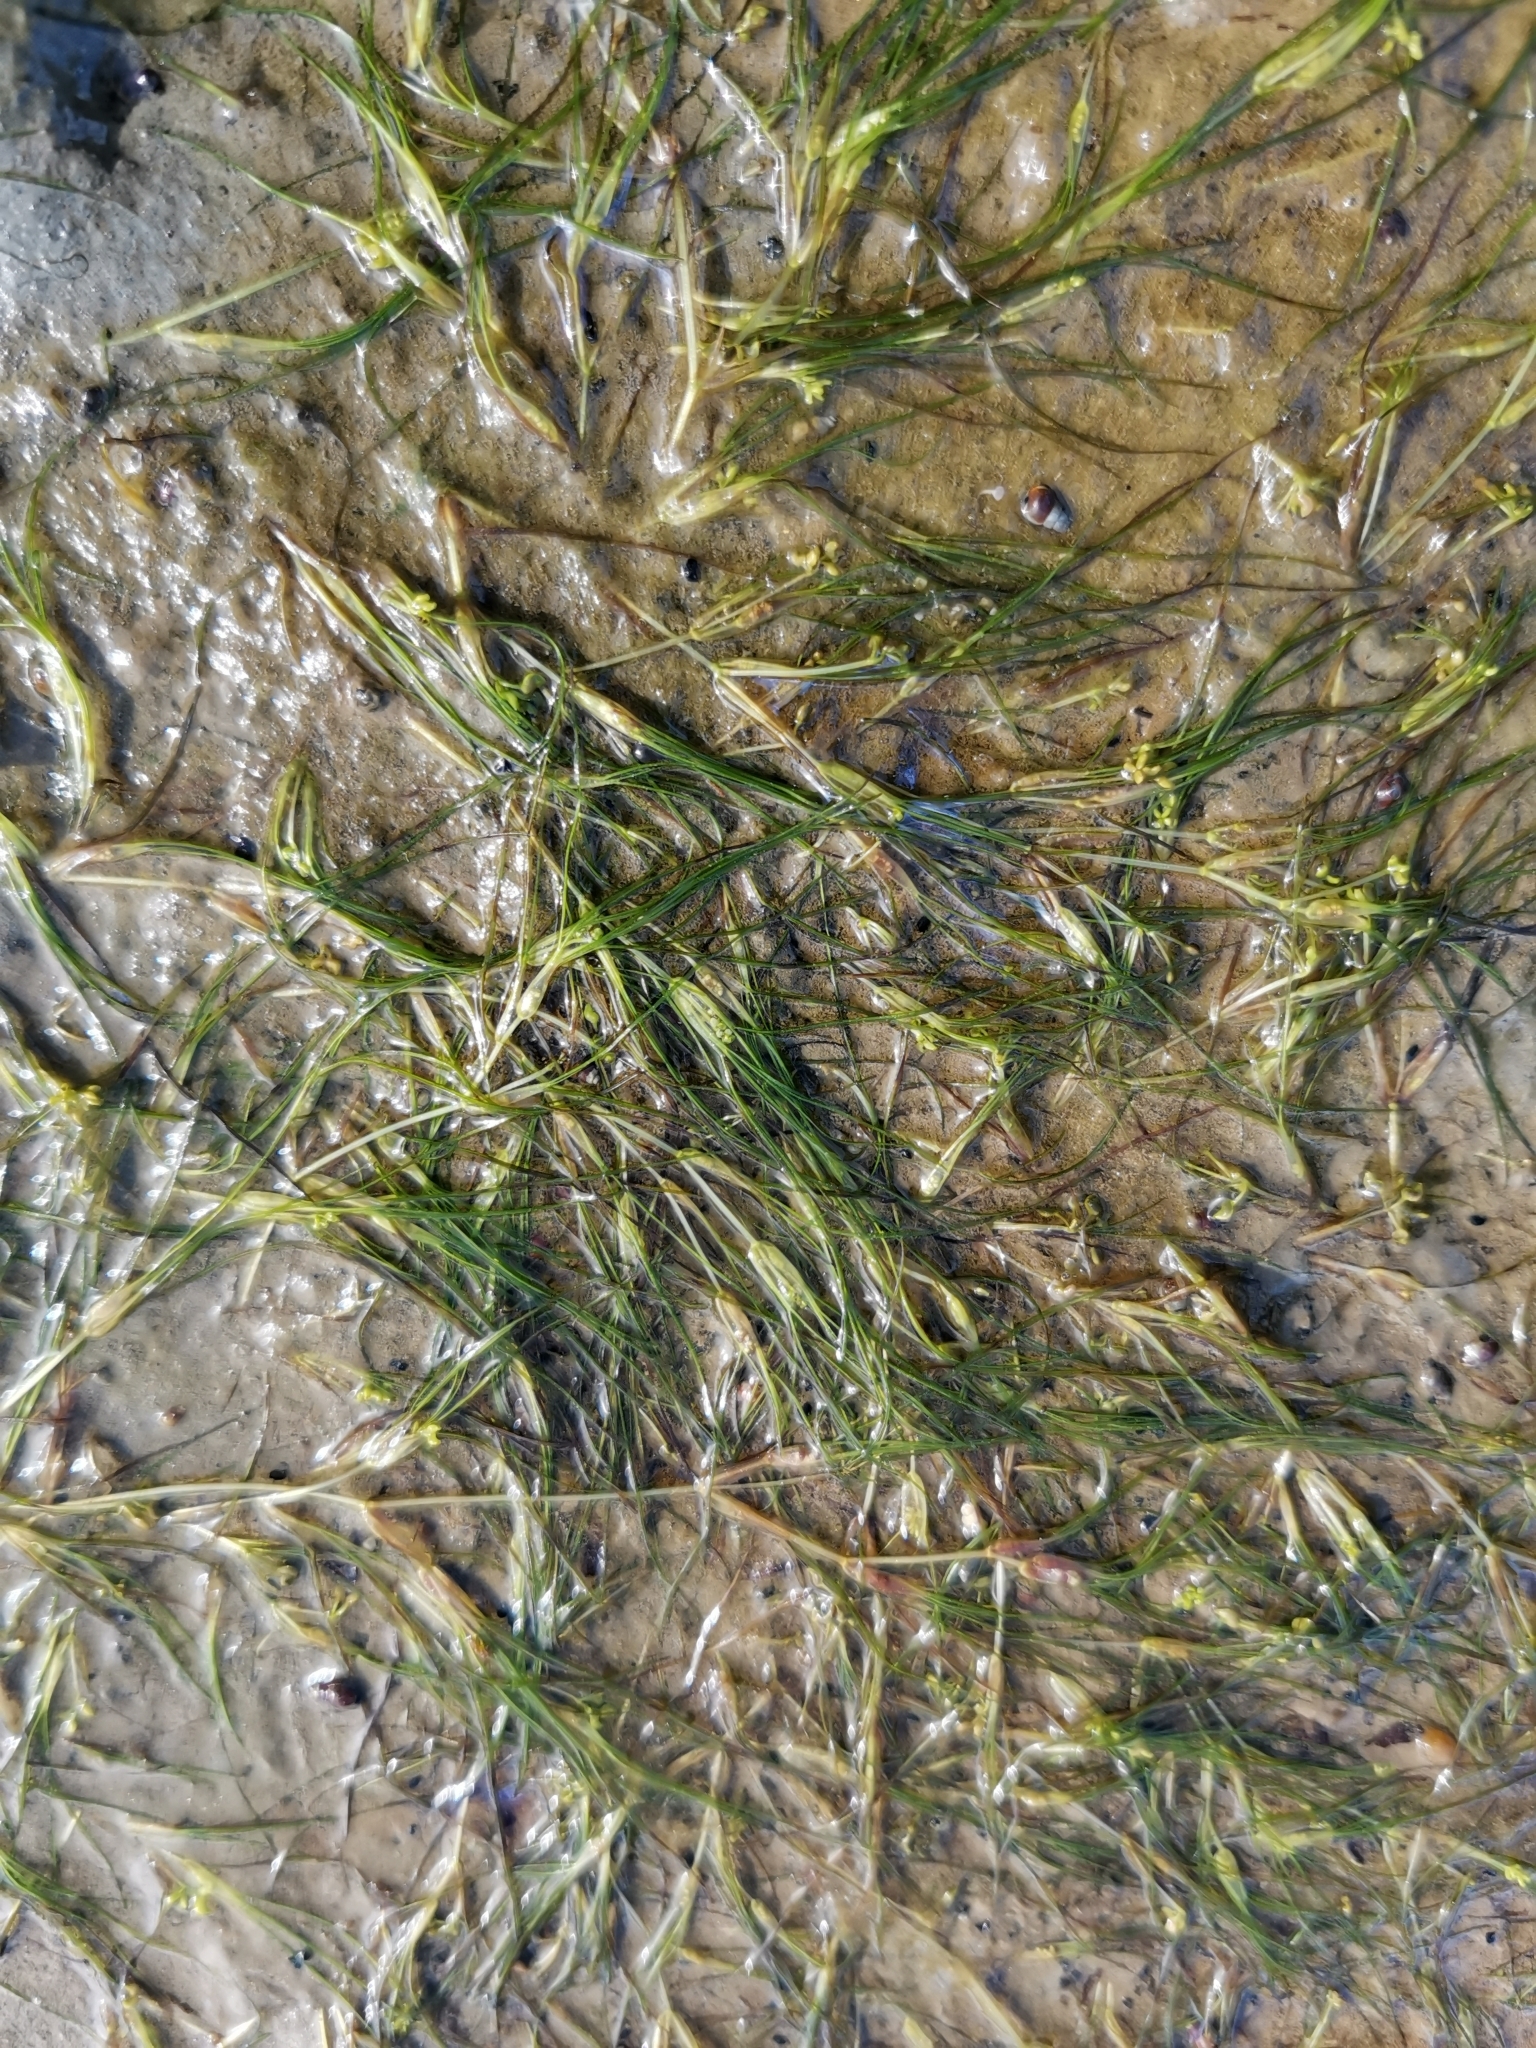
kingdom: Plantae
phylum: Tracheophyta
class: Liliopsida
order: Alismatales
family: Ruppiaceae
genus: Ruppia
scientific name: Ruppia maritima
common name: Beaked tasselweed
